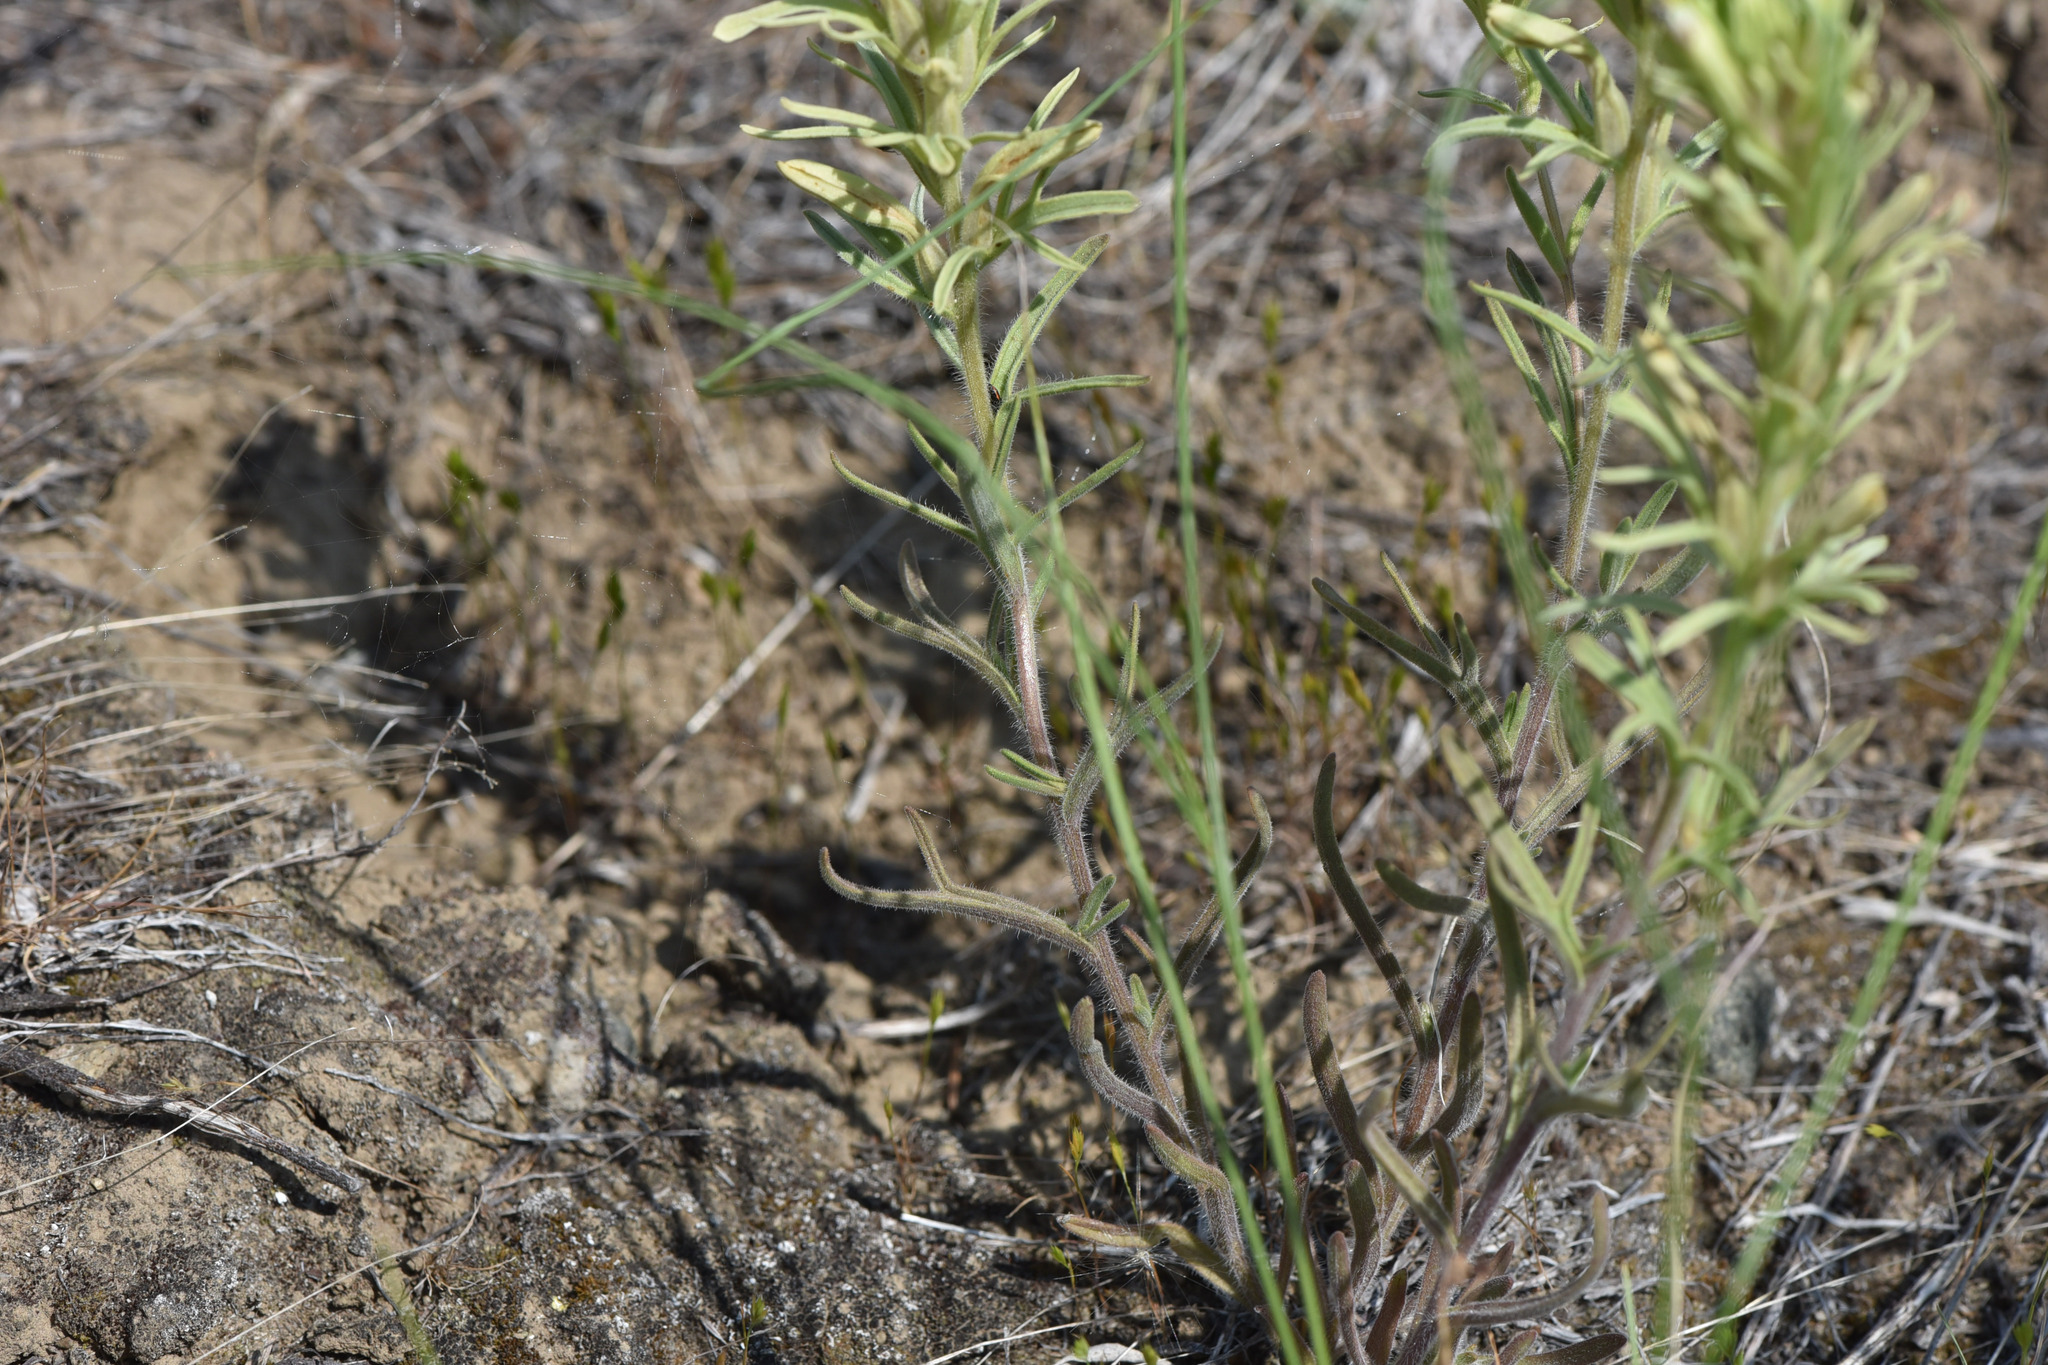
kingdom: Plantae
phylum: Tracheophyta
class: Magnoliopsida
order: Lamiales
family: Orobanchaceae
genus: Castilleja
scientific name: Castilleja thompsonii
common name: Thompson's paintbrush
